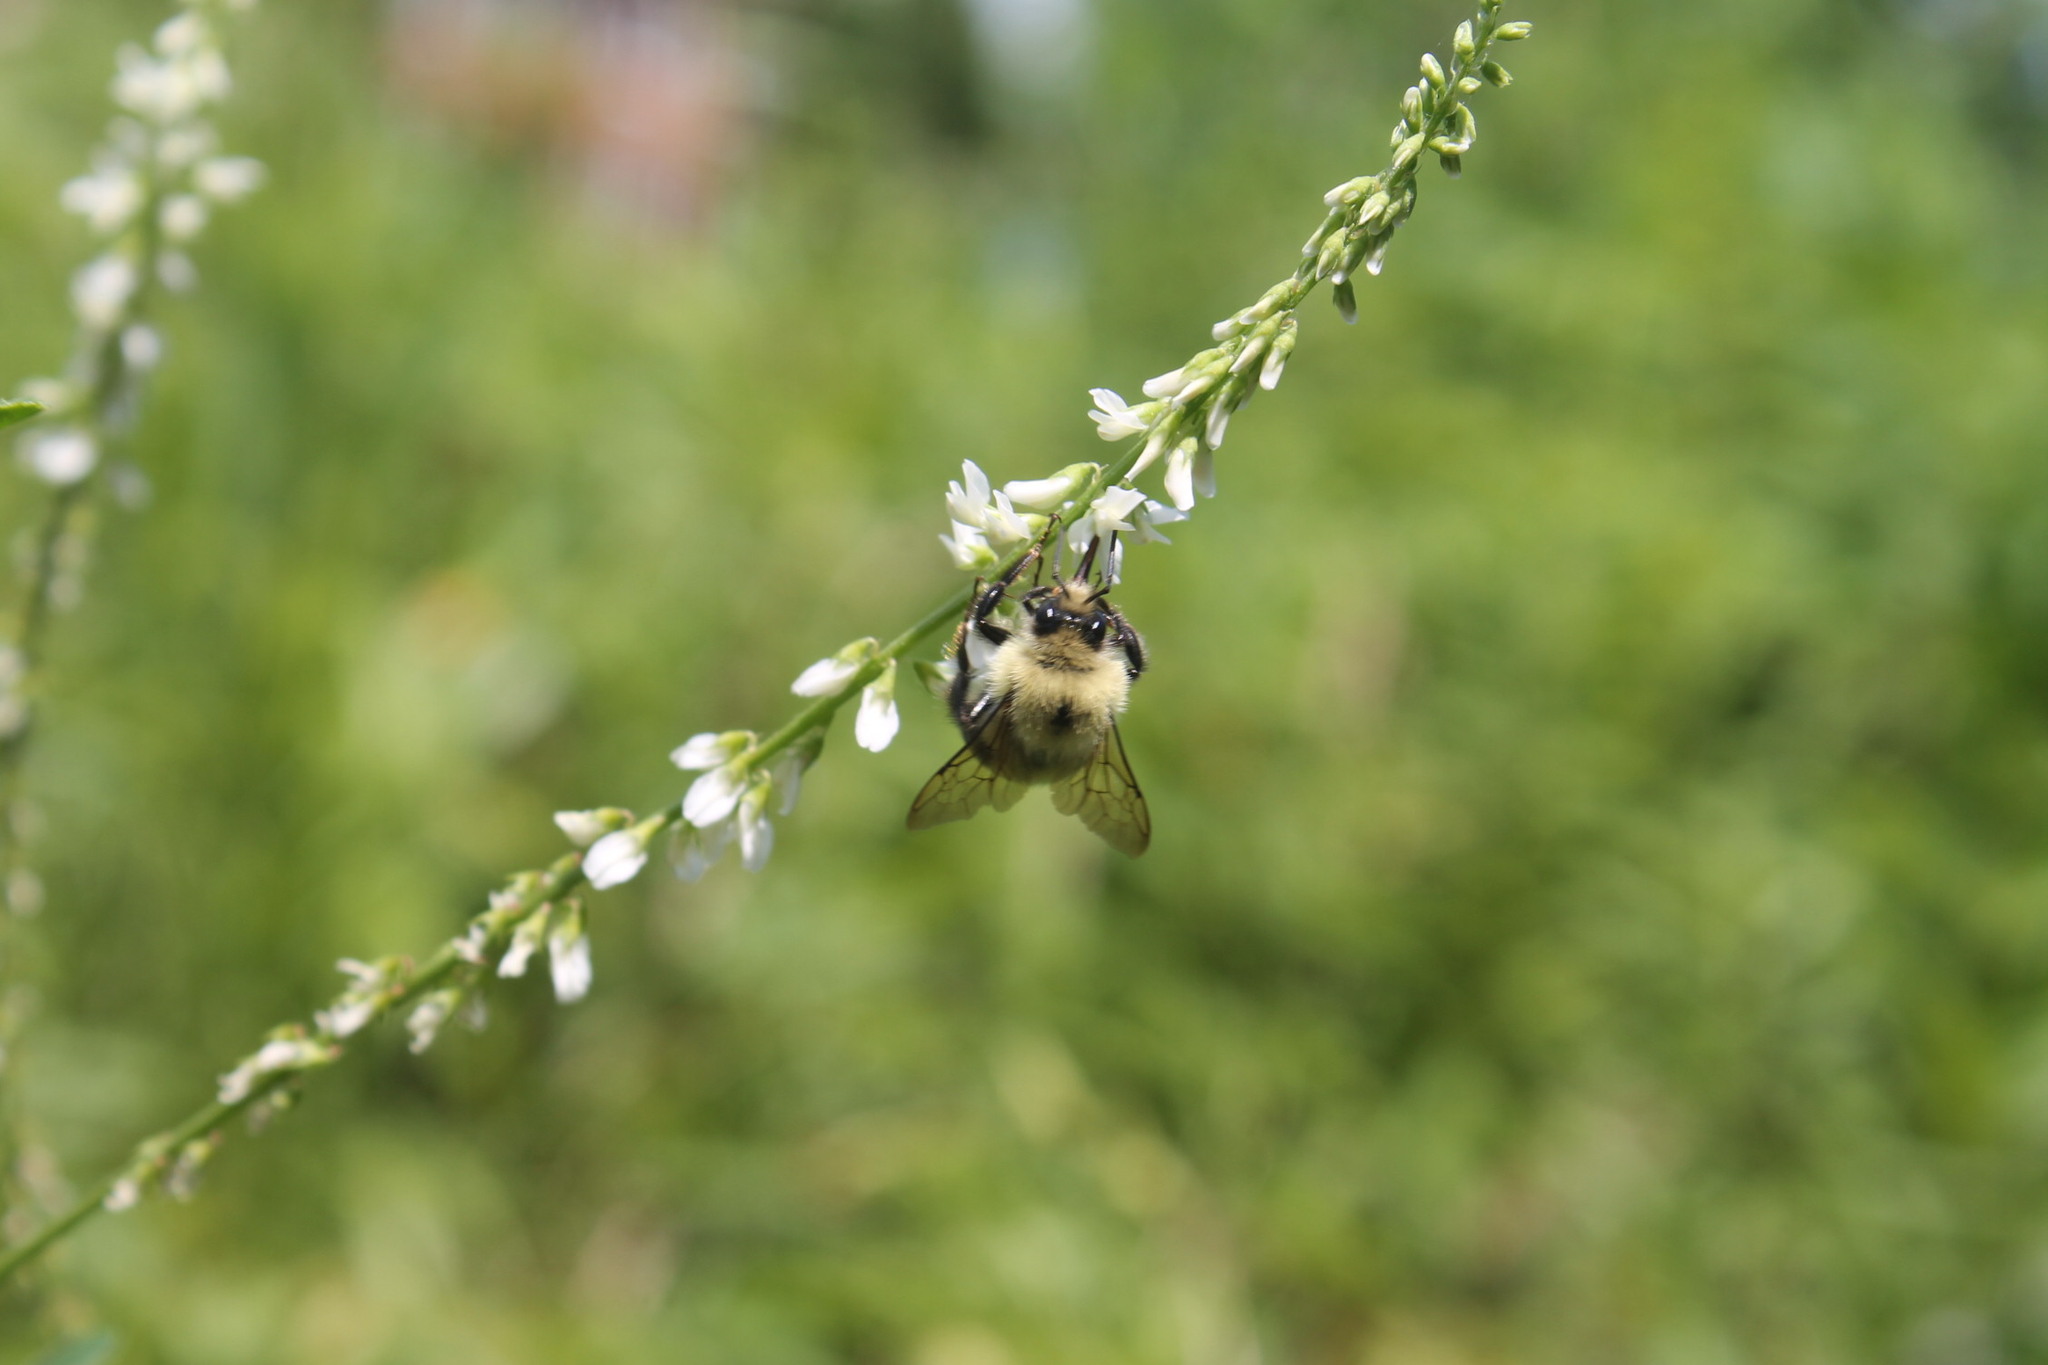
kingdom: Animalia
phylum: Arthropoda
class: Insecta
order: Hymenoptera
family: Apidae
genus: Bombus
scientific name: Bombus bimaculatus
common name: Two-spotted bumble bee
